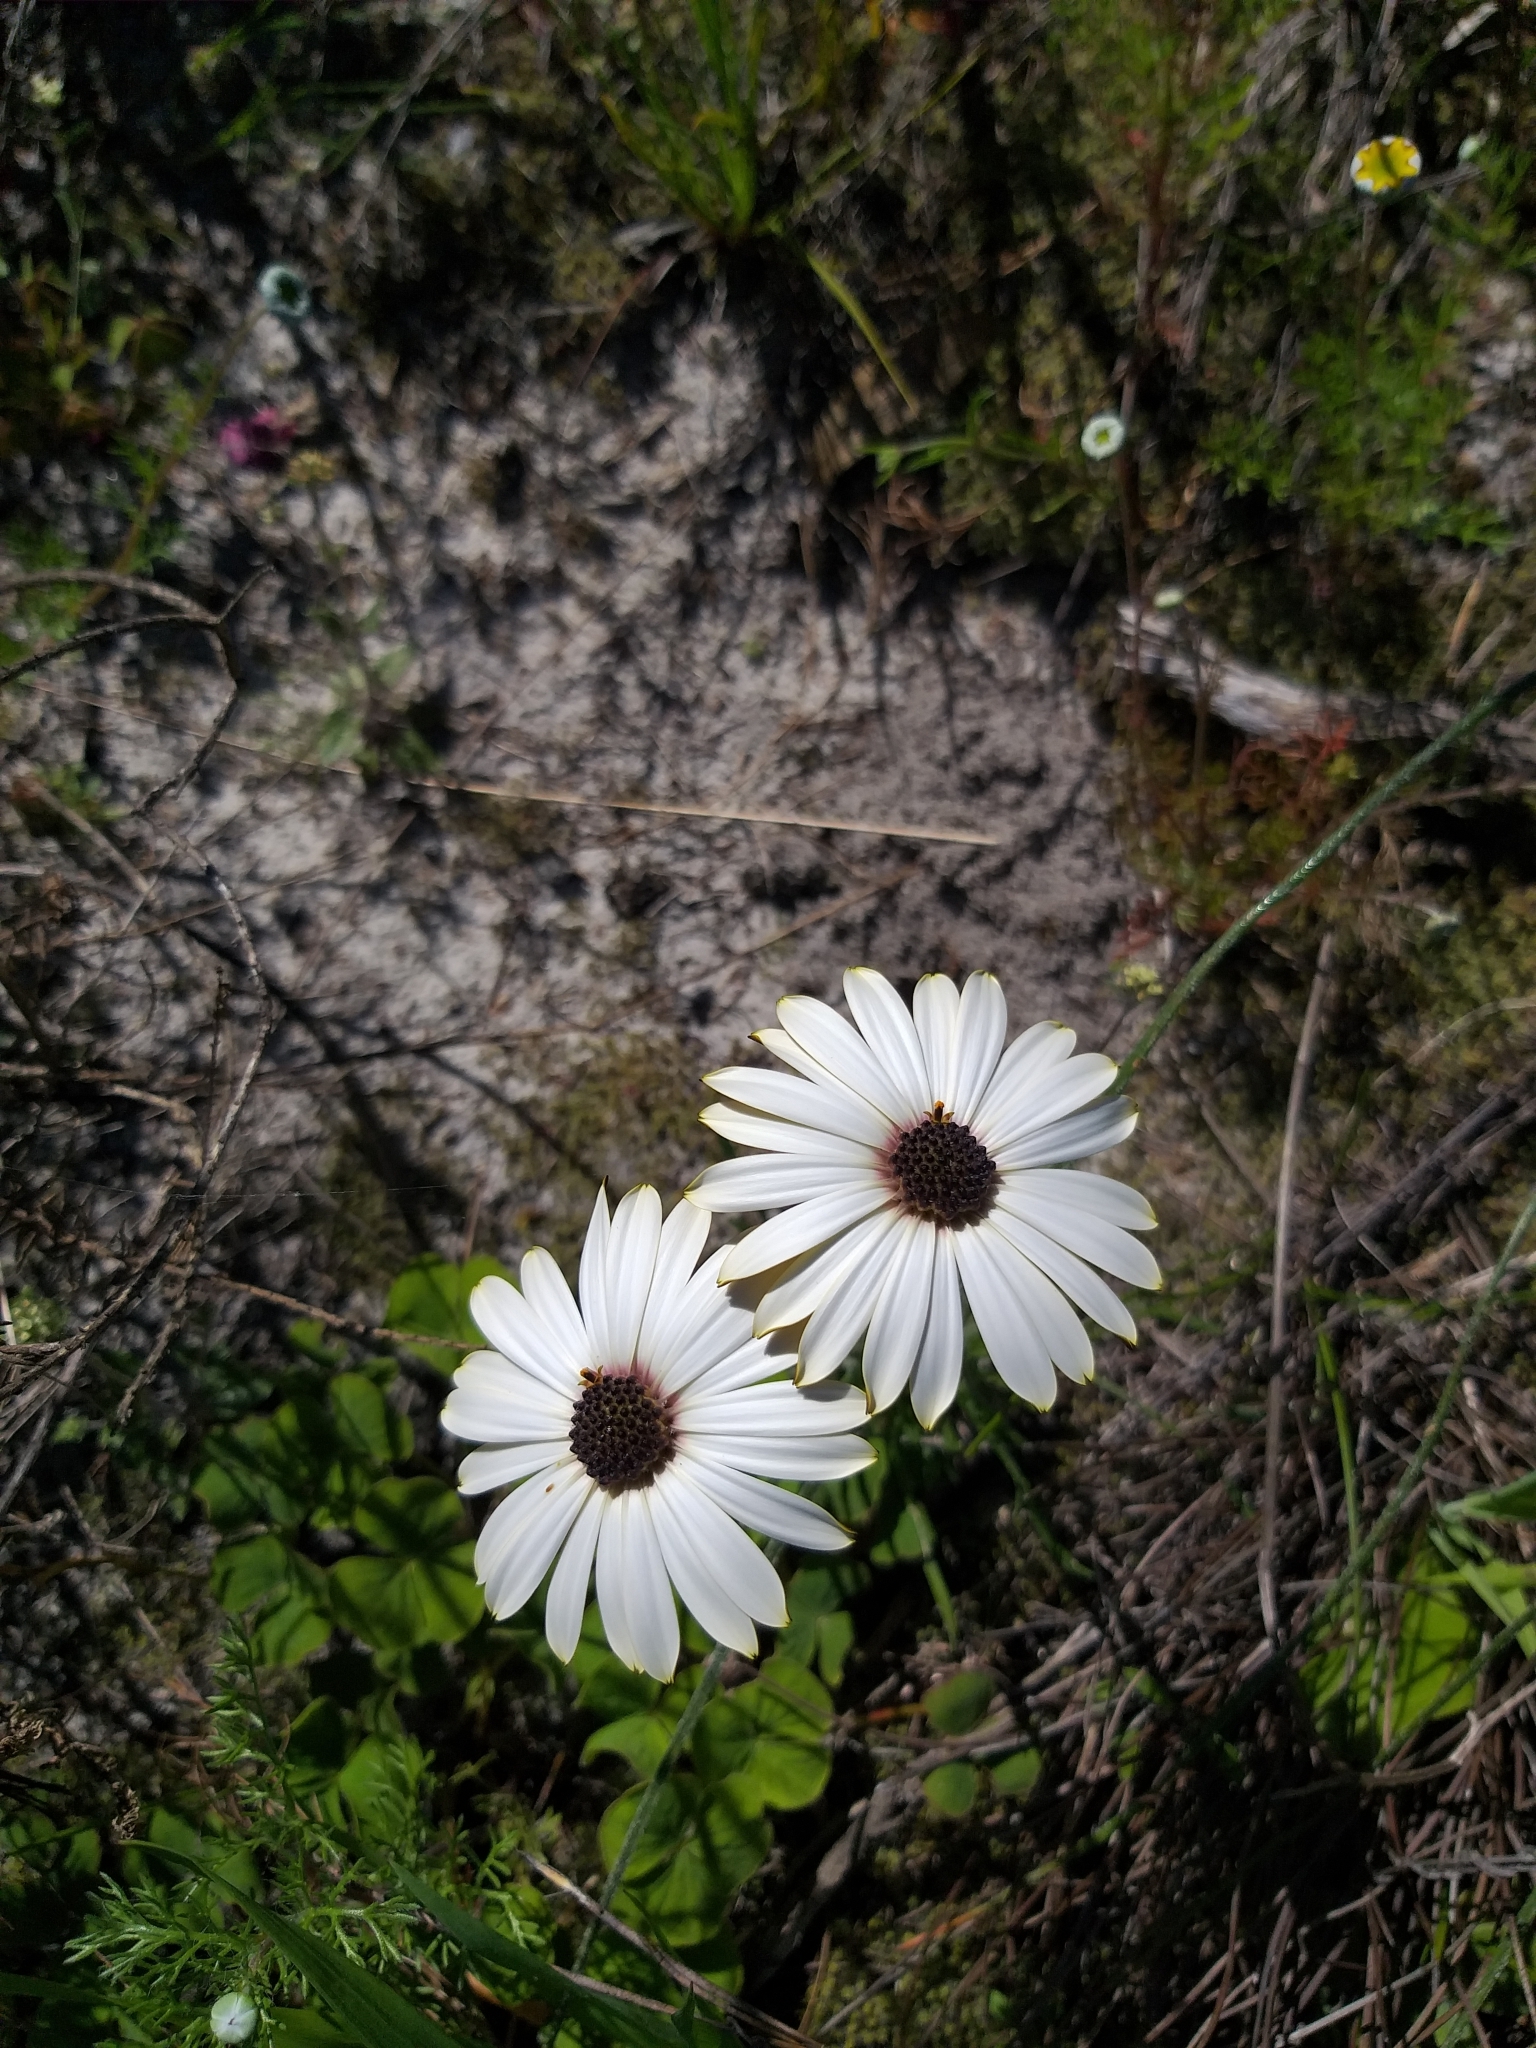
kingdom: Plantae
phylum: Tracheophyta
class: Magnoliopsida
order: Asterales
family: Asteraceae
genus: Dimorphotheca
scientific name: Dimorphotheca nudicaulis
